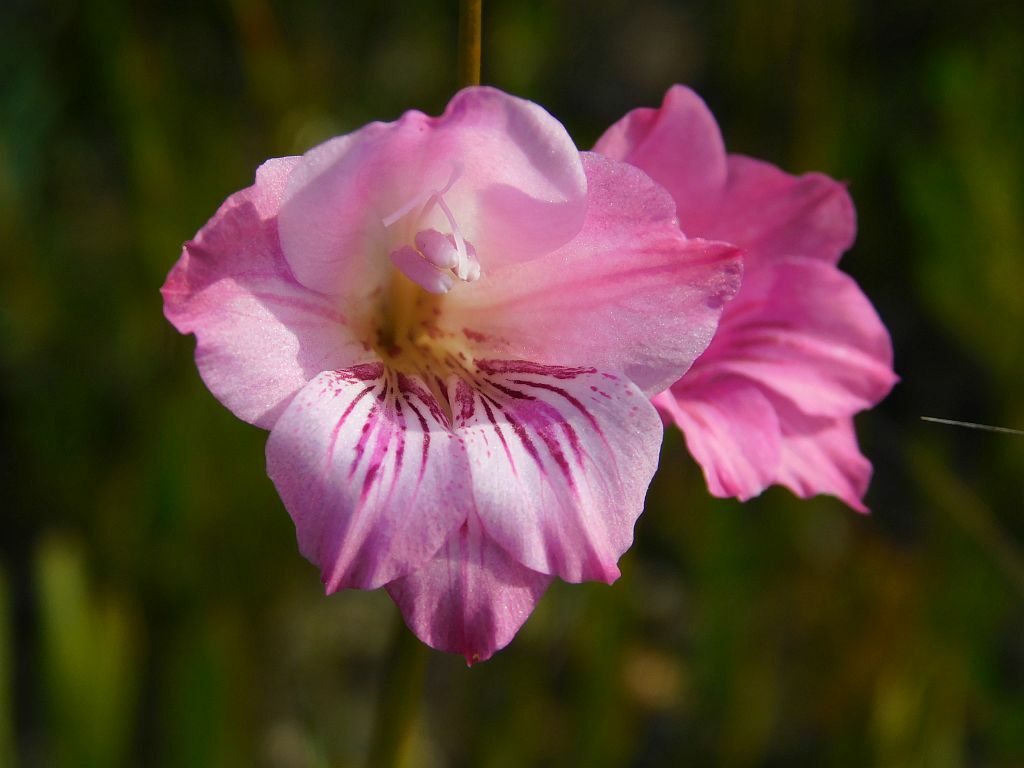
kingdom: Plantae
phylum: Tracheophyta
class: Liliopsida
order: Asparagales
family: Iridaceae
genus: Gladiolus
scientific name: Gladiolus hirsutus
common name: Small pink afrikaner
